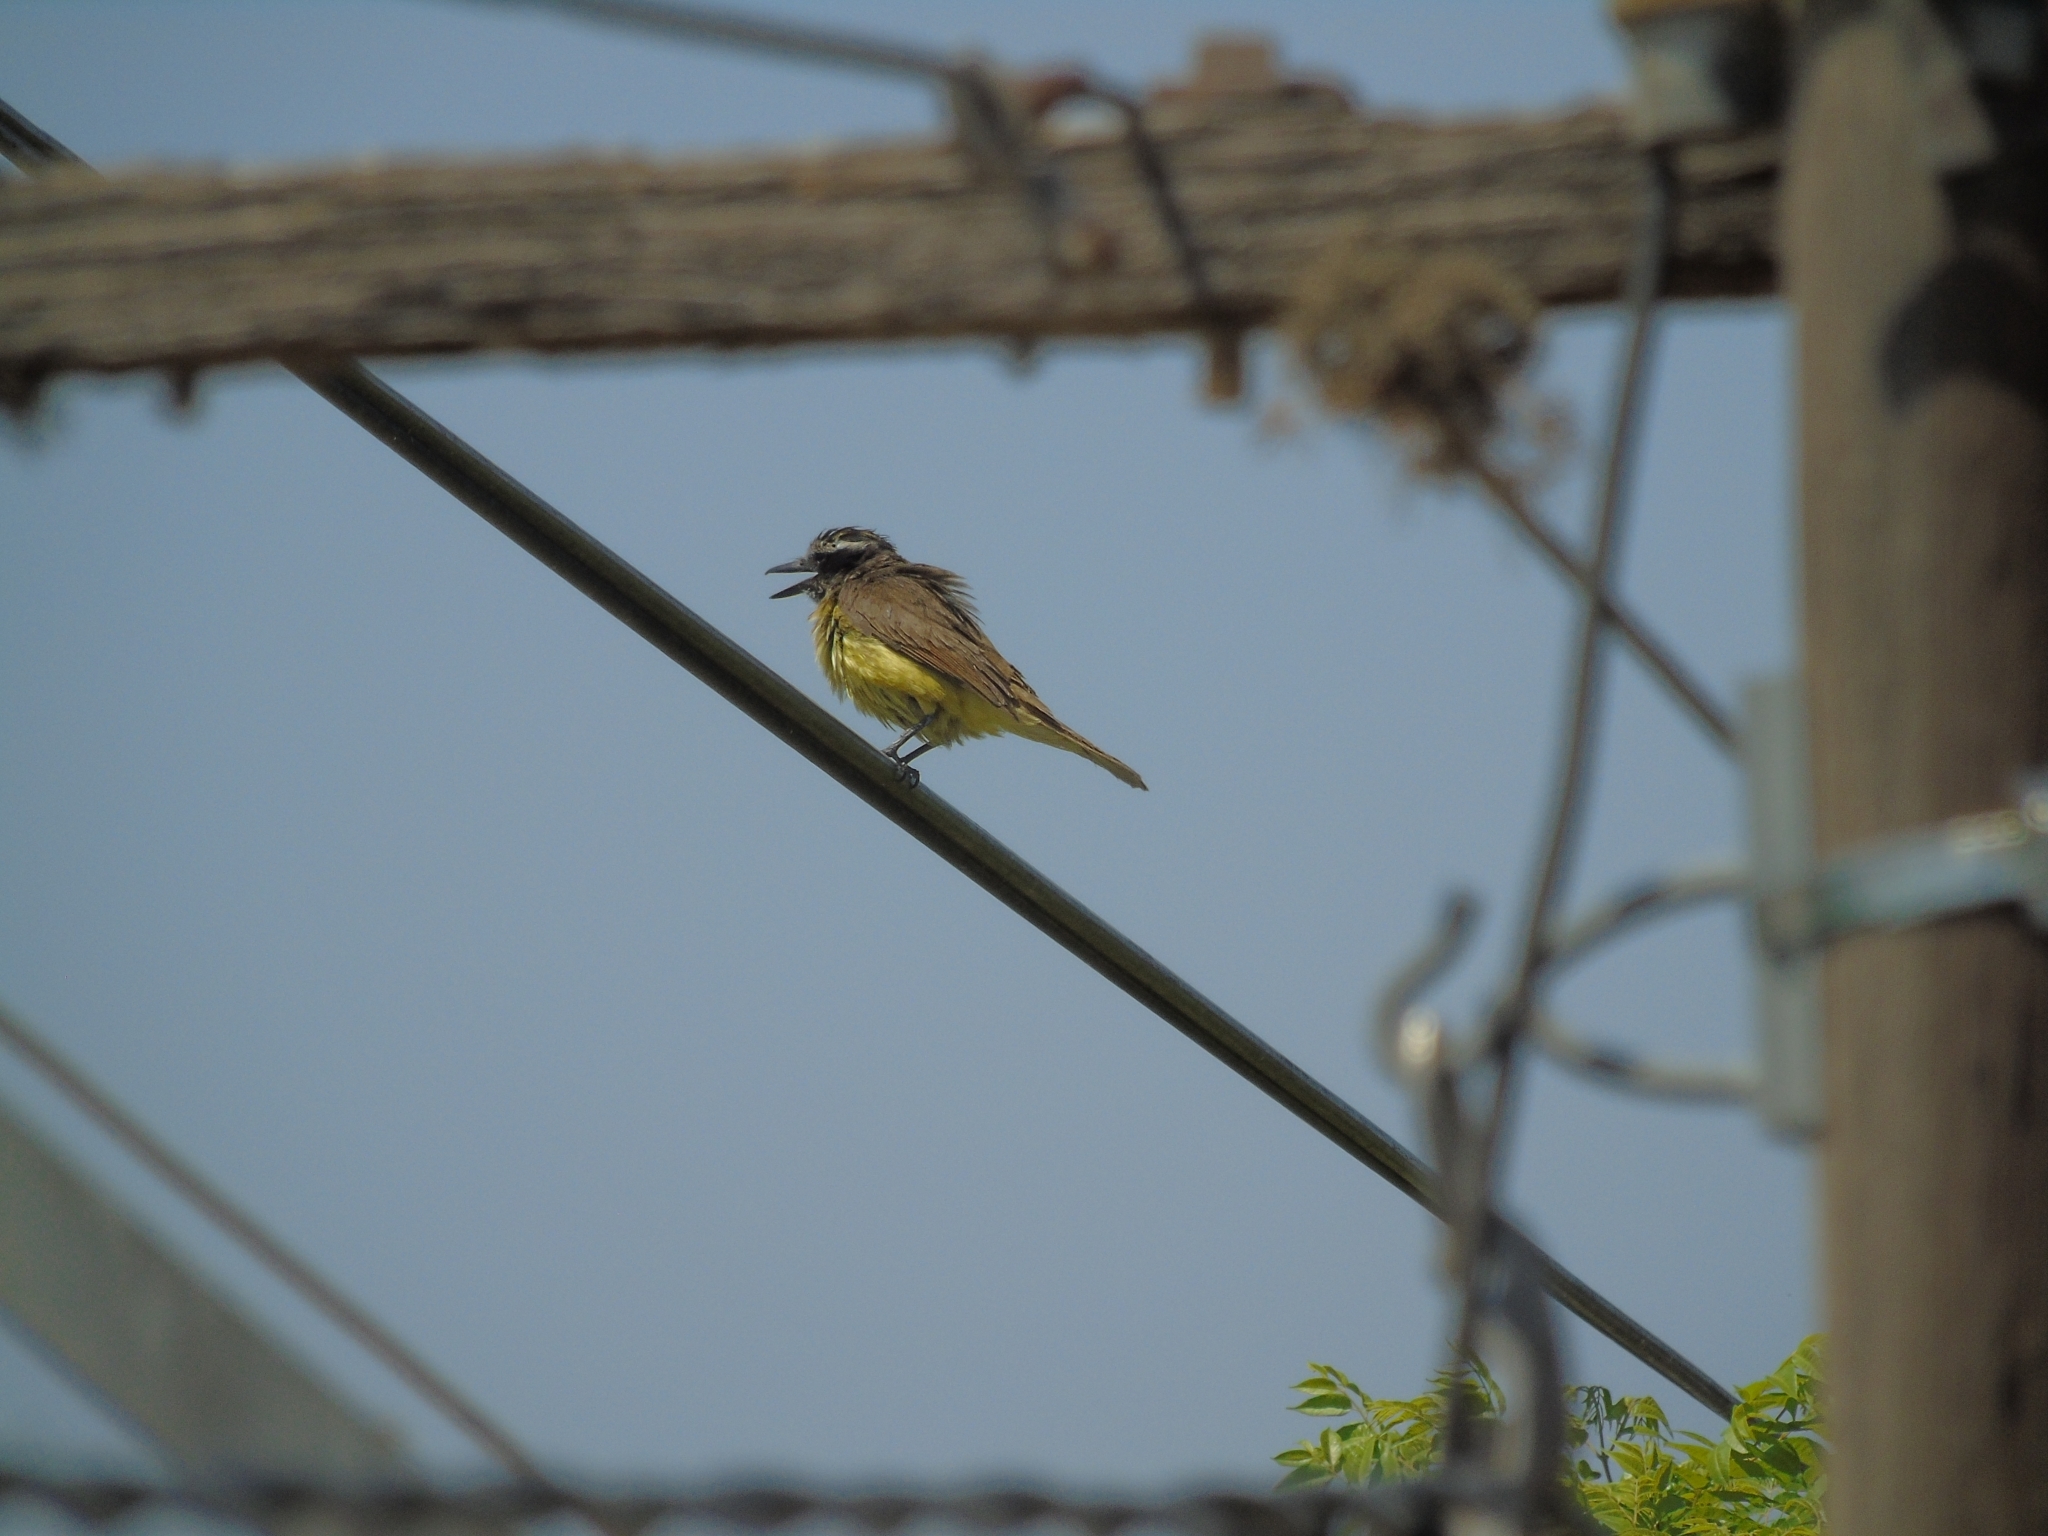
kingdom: Animalia
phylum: Chordata
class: Aves
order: Passeriformes
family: Tyrannidae
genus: Pitangus
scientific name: Pitangus sulphuratus
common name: Great kiskadee
